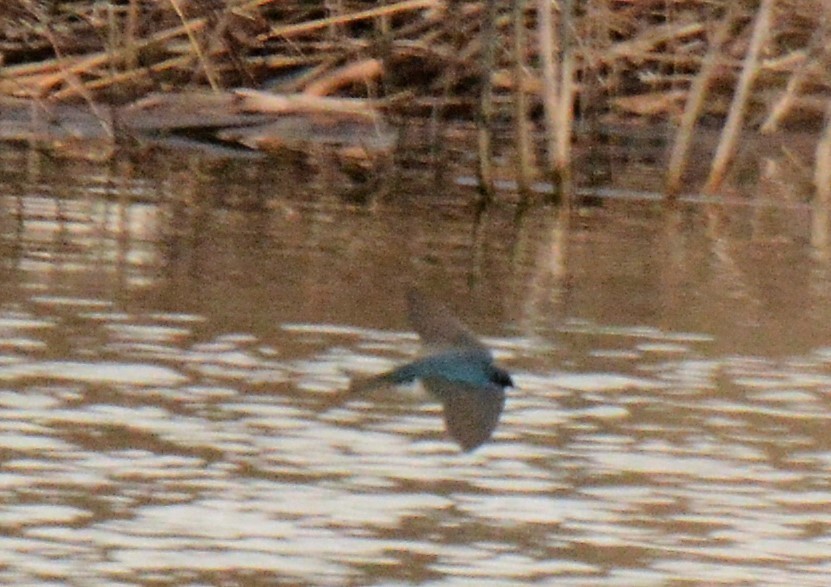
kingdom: Animalia
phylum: Chordata
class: Aves
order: Passeriformes
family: Hirundinidae
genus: Tachycineta
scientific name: Tachycineta bicolor
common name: Tree swallow
